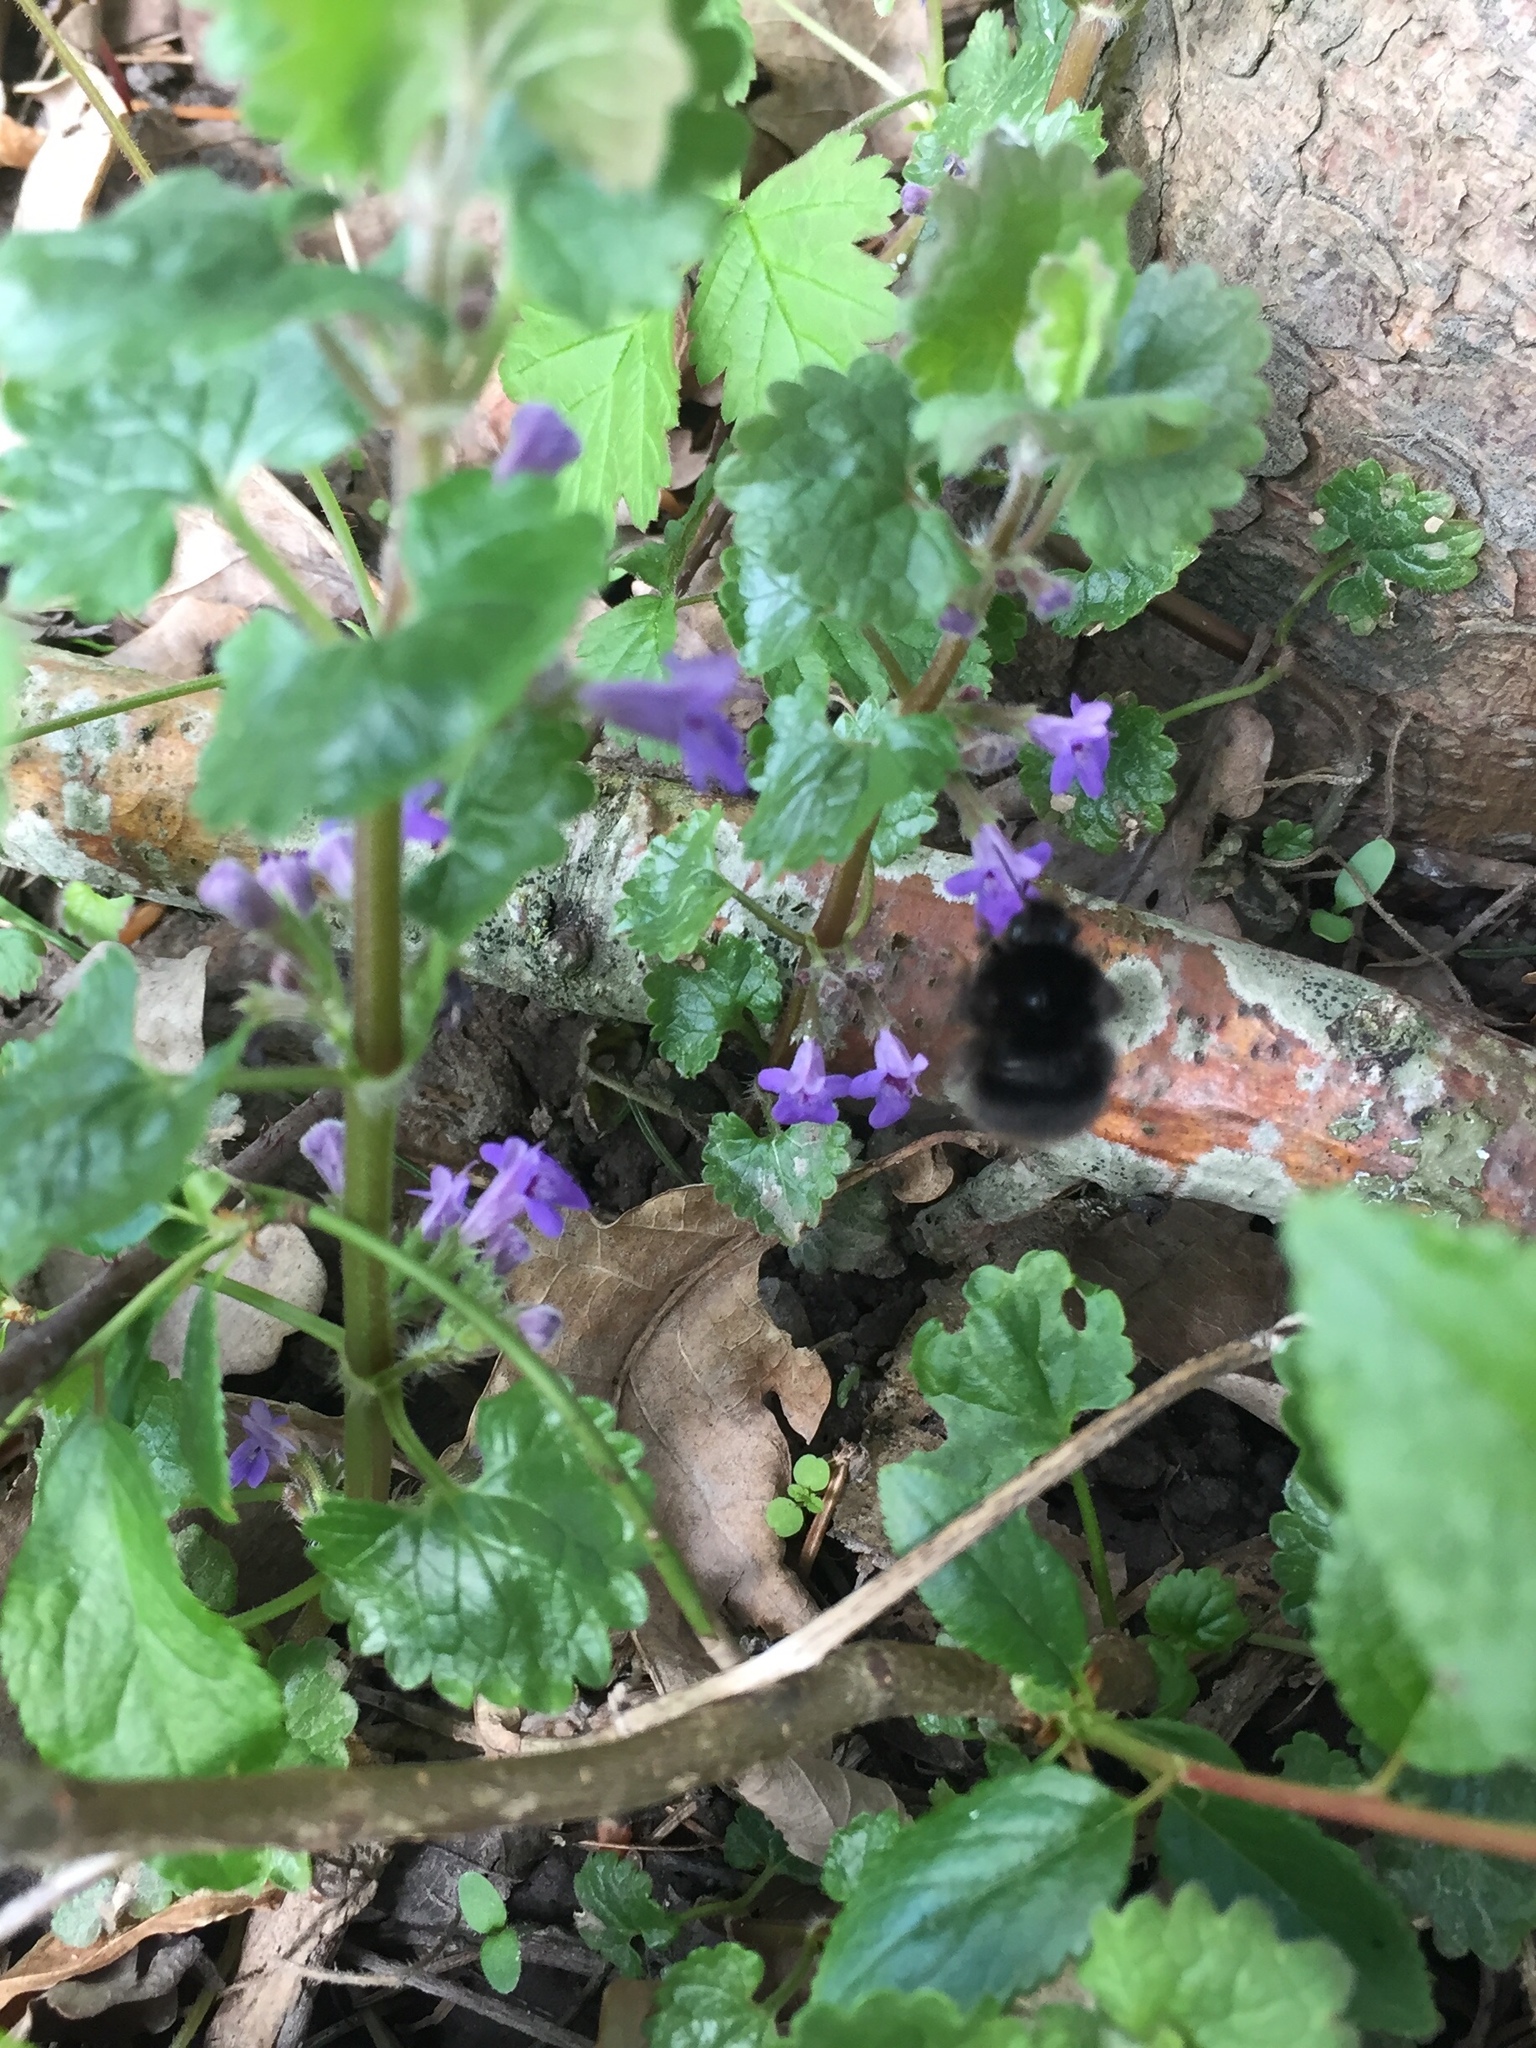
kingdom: Plantae
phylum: Tracheophyta
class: Magnoliopsida
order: Lamiales
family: Lamiaceae
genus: Glechoma
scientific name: Glechoma hederacea
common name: Ground ivy
